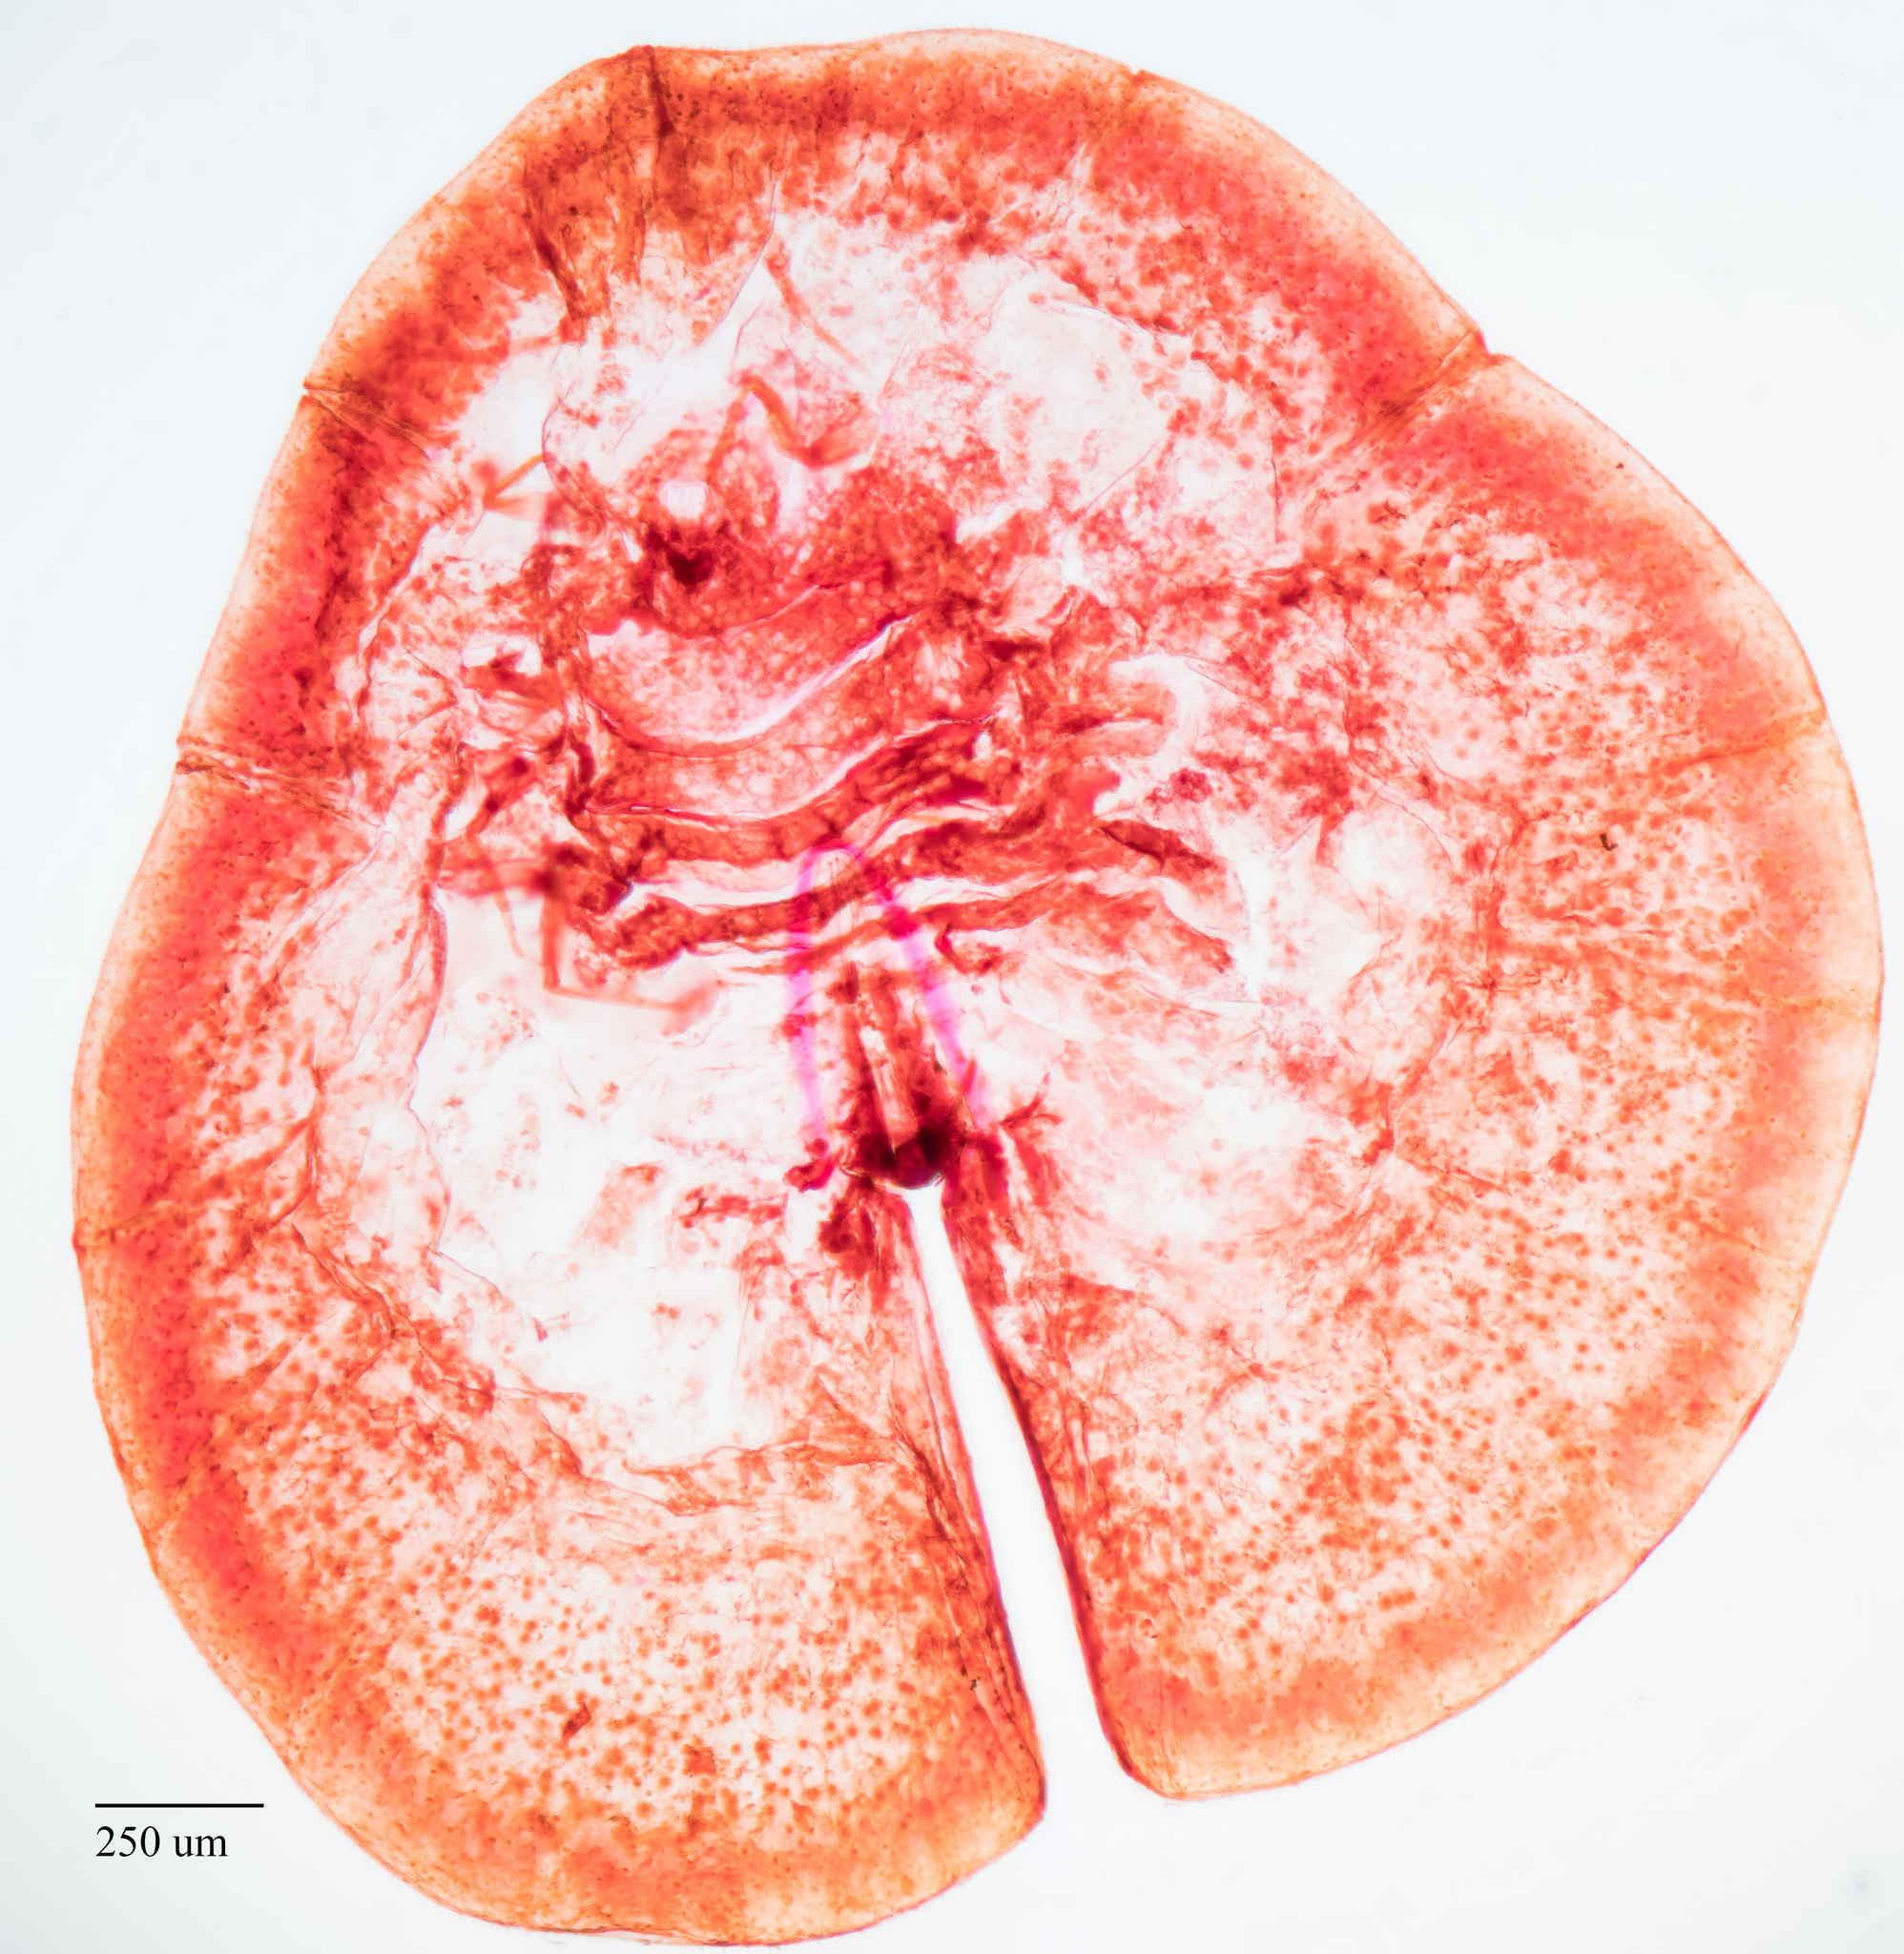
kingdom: Animalia
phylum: Arthropoda
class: Insecta
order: Hemiptera
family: Coccidae
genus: Protopulvinaria
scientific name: Protopulvinaria pyriformis
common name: Pyriform scale
